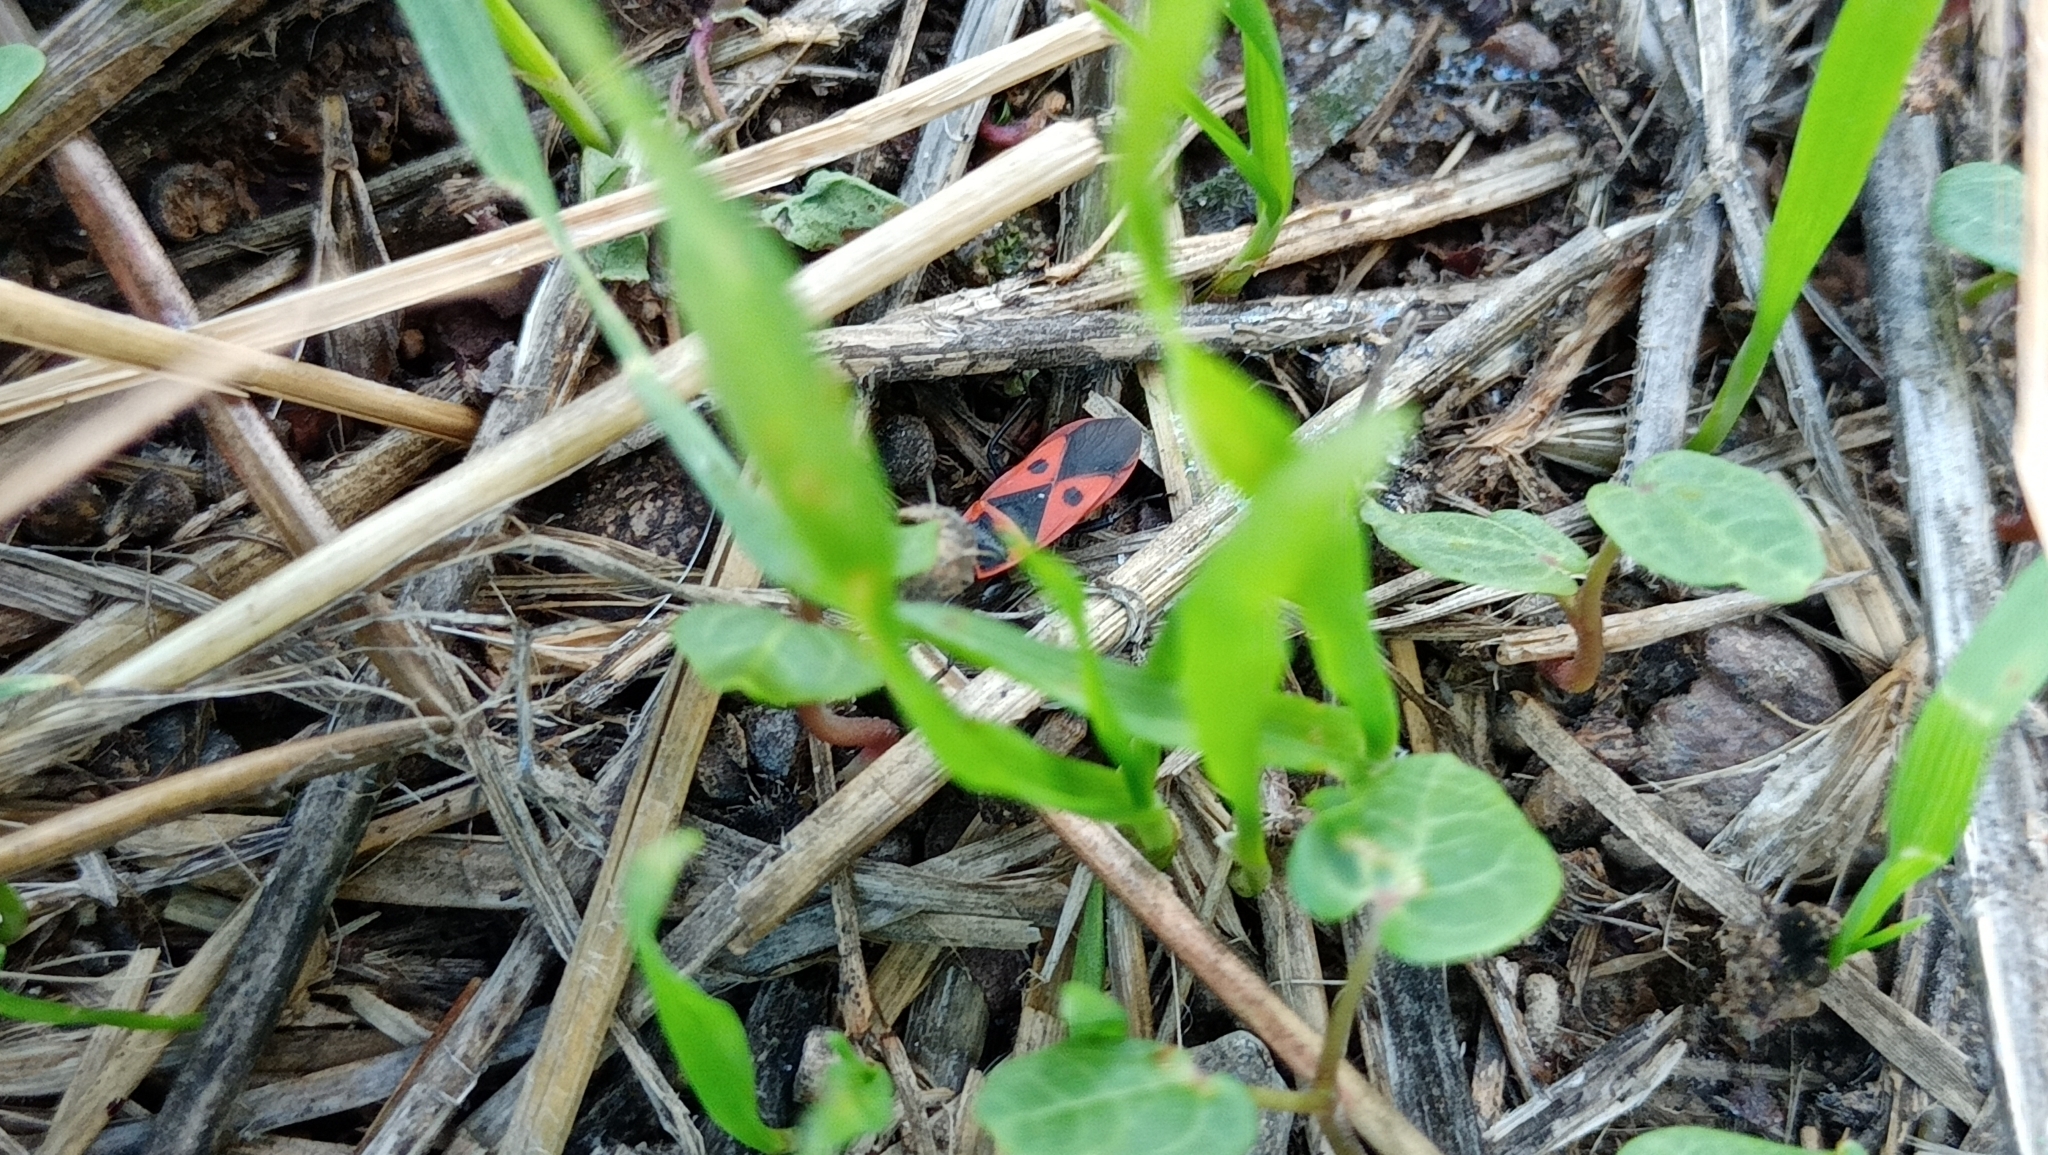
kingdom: Animalia
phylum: Arthropoda
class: Insecta
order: Hemiptera
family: Pyrrhocoridae
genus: Scantius
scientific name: Scantius aegyptius
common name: Red bug
